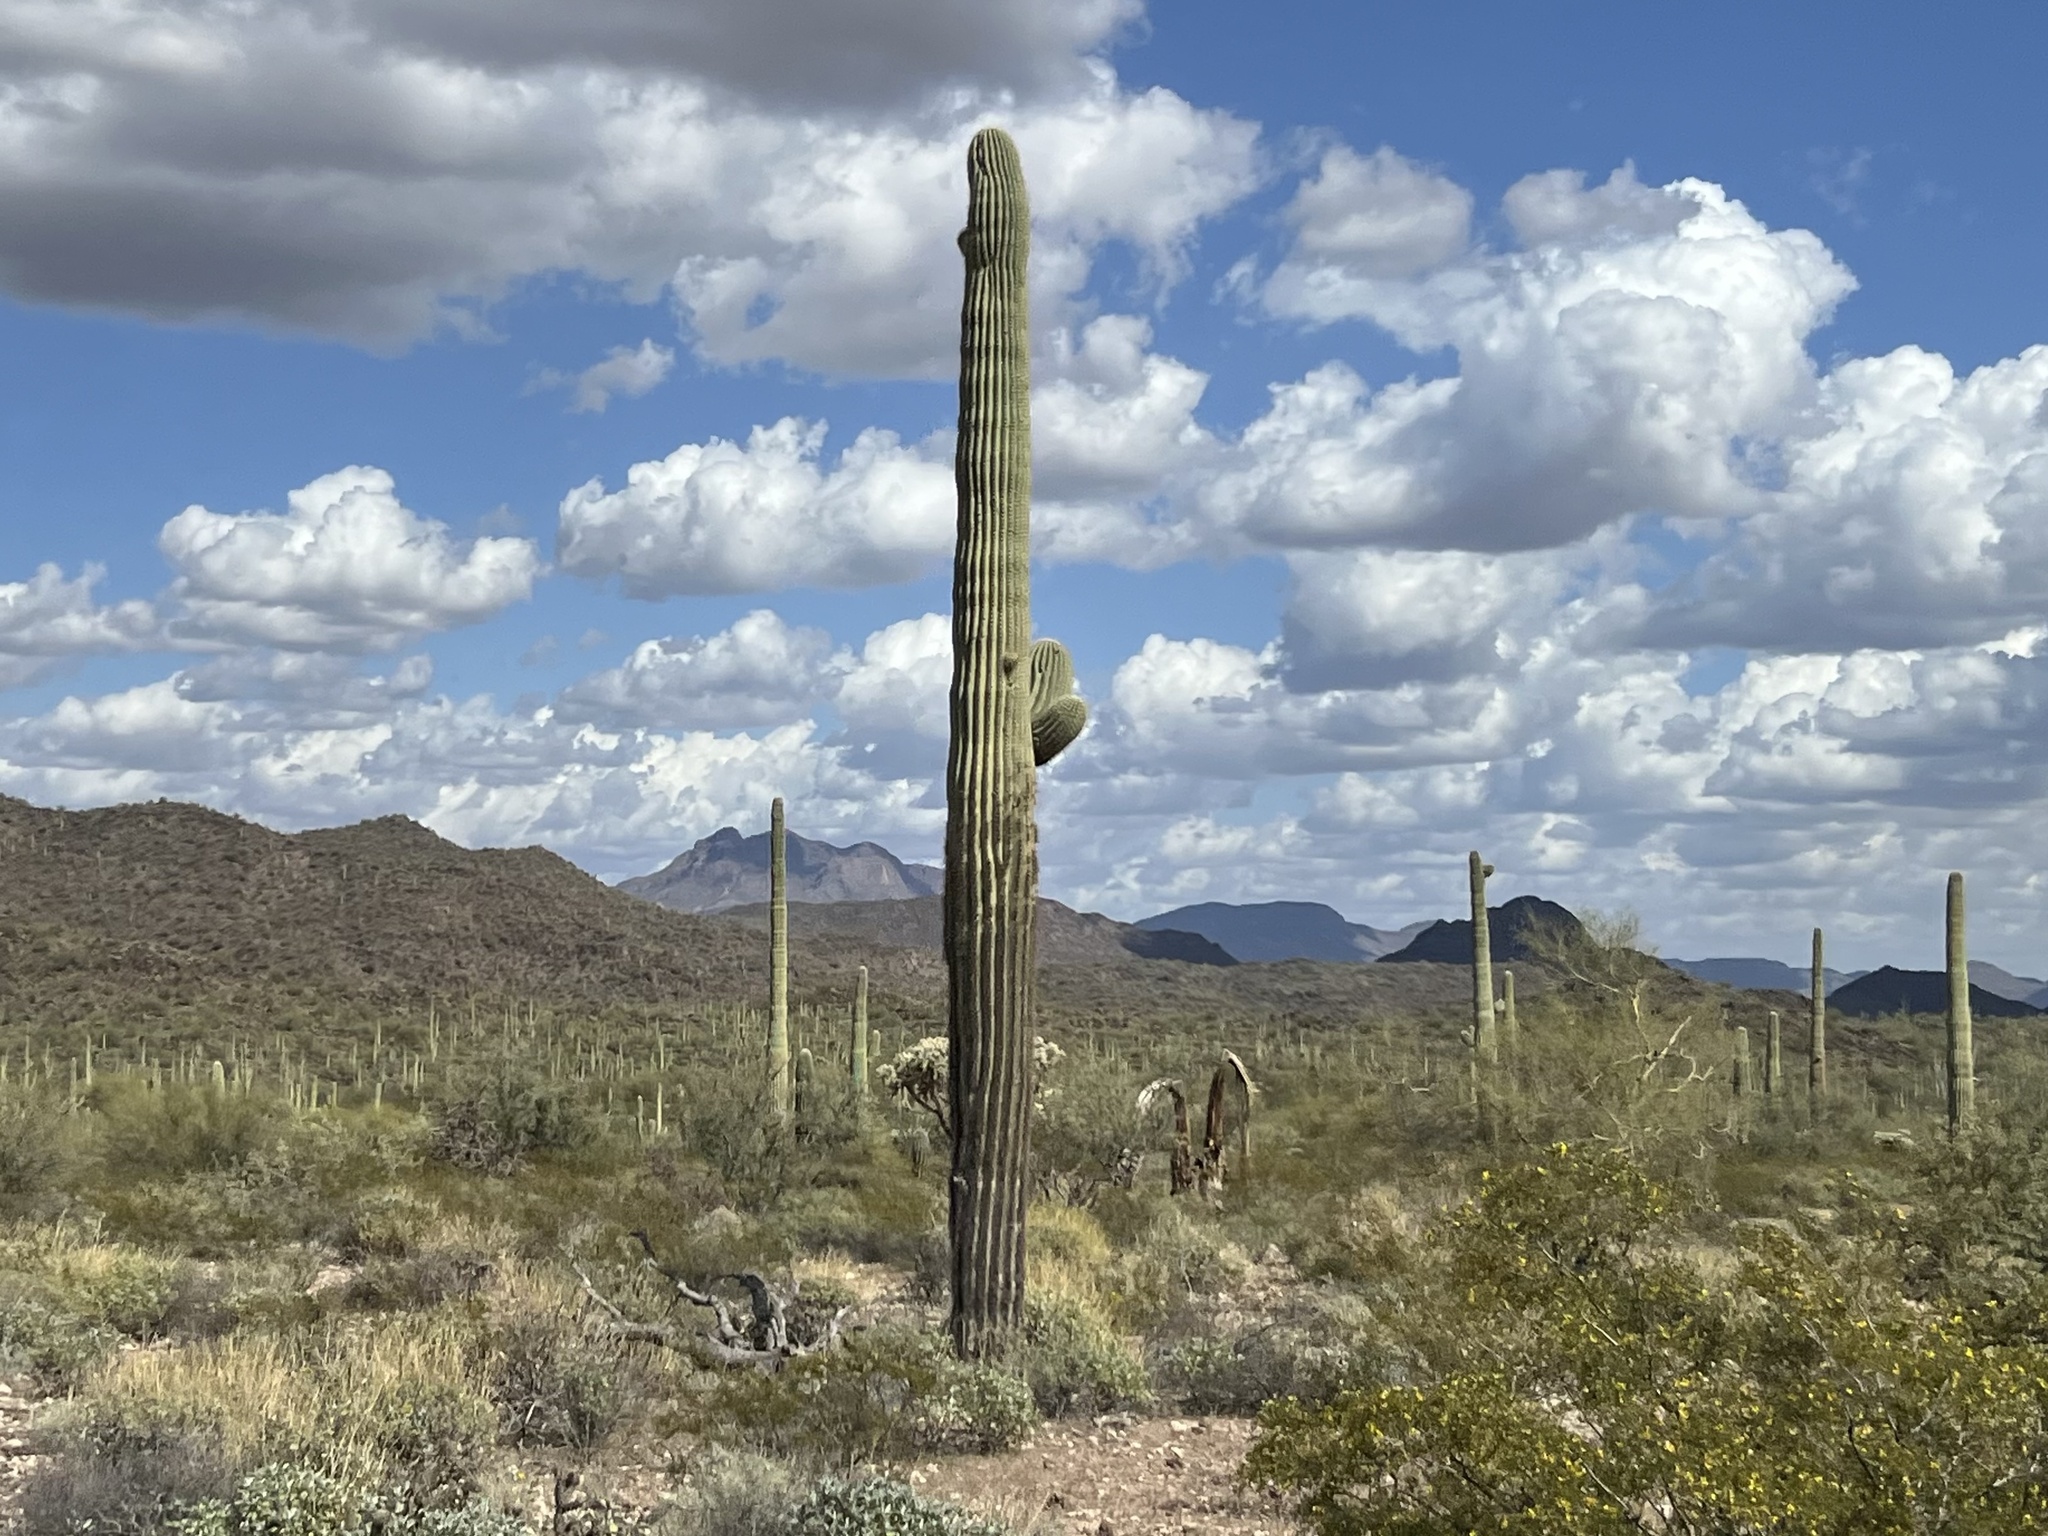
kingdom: Plantae
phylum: Tracheophyta
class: Magnoliopsida
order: Caryophyllales
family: Cactaceae
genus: Carnegiea
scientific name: Carnegiea gigantea
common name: Saguaro
